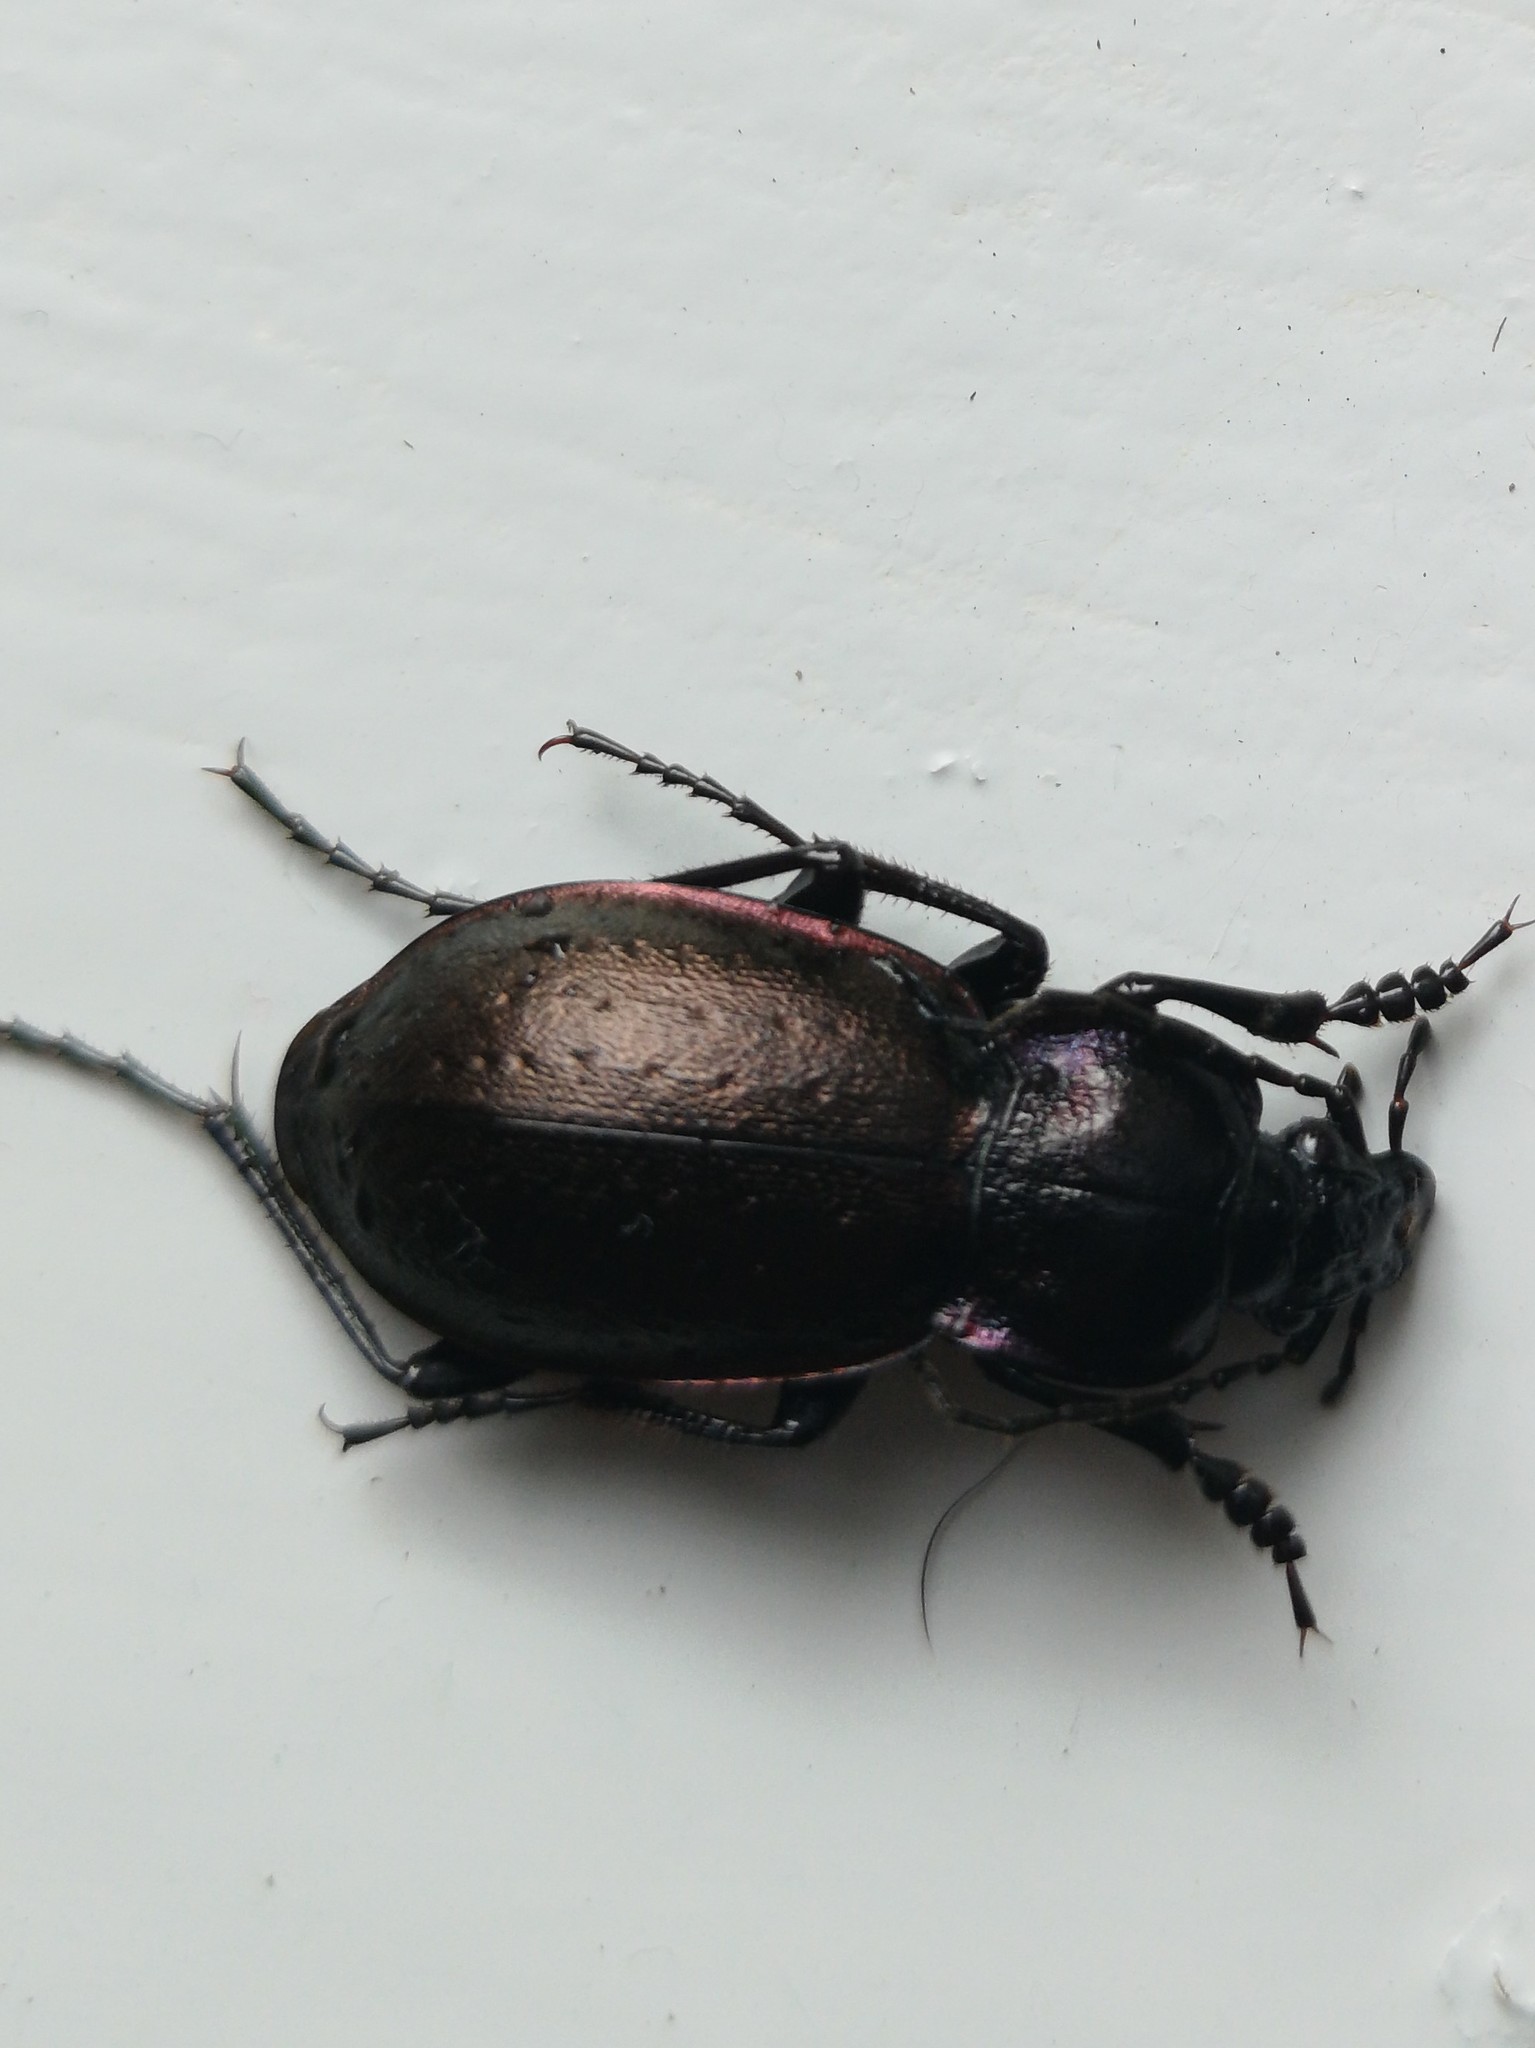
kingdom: Animalia
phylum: Arthropoda
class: Insecta
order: Coleoptera
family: Carabidae
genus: Carabus
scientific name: Carabus nemoralis
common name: European ground beetle
